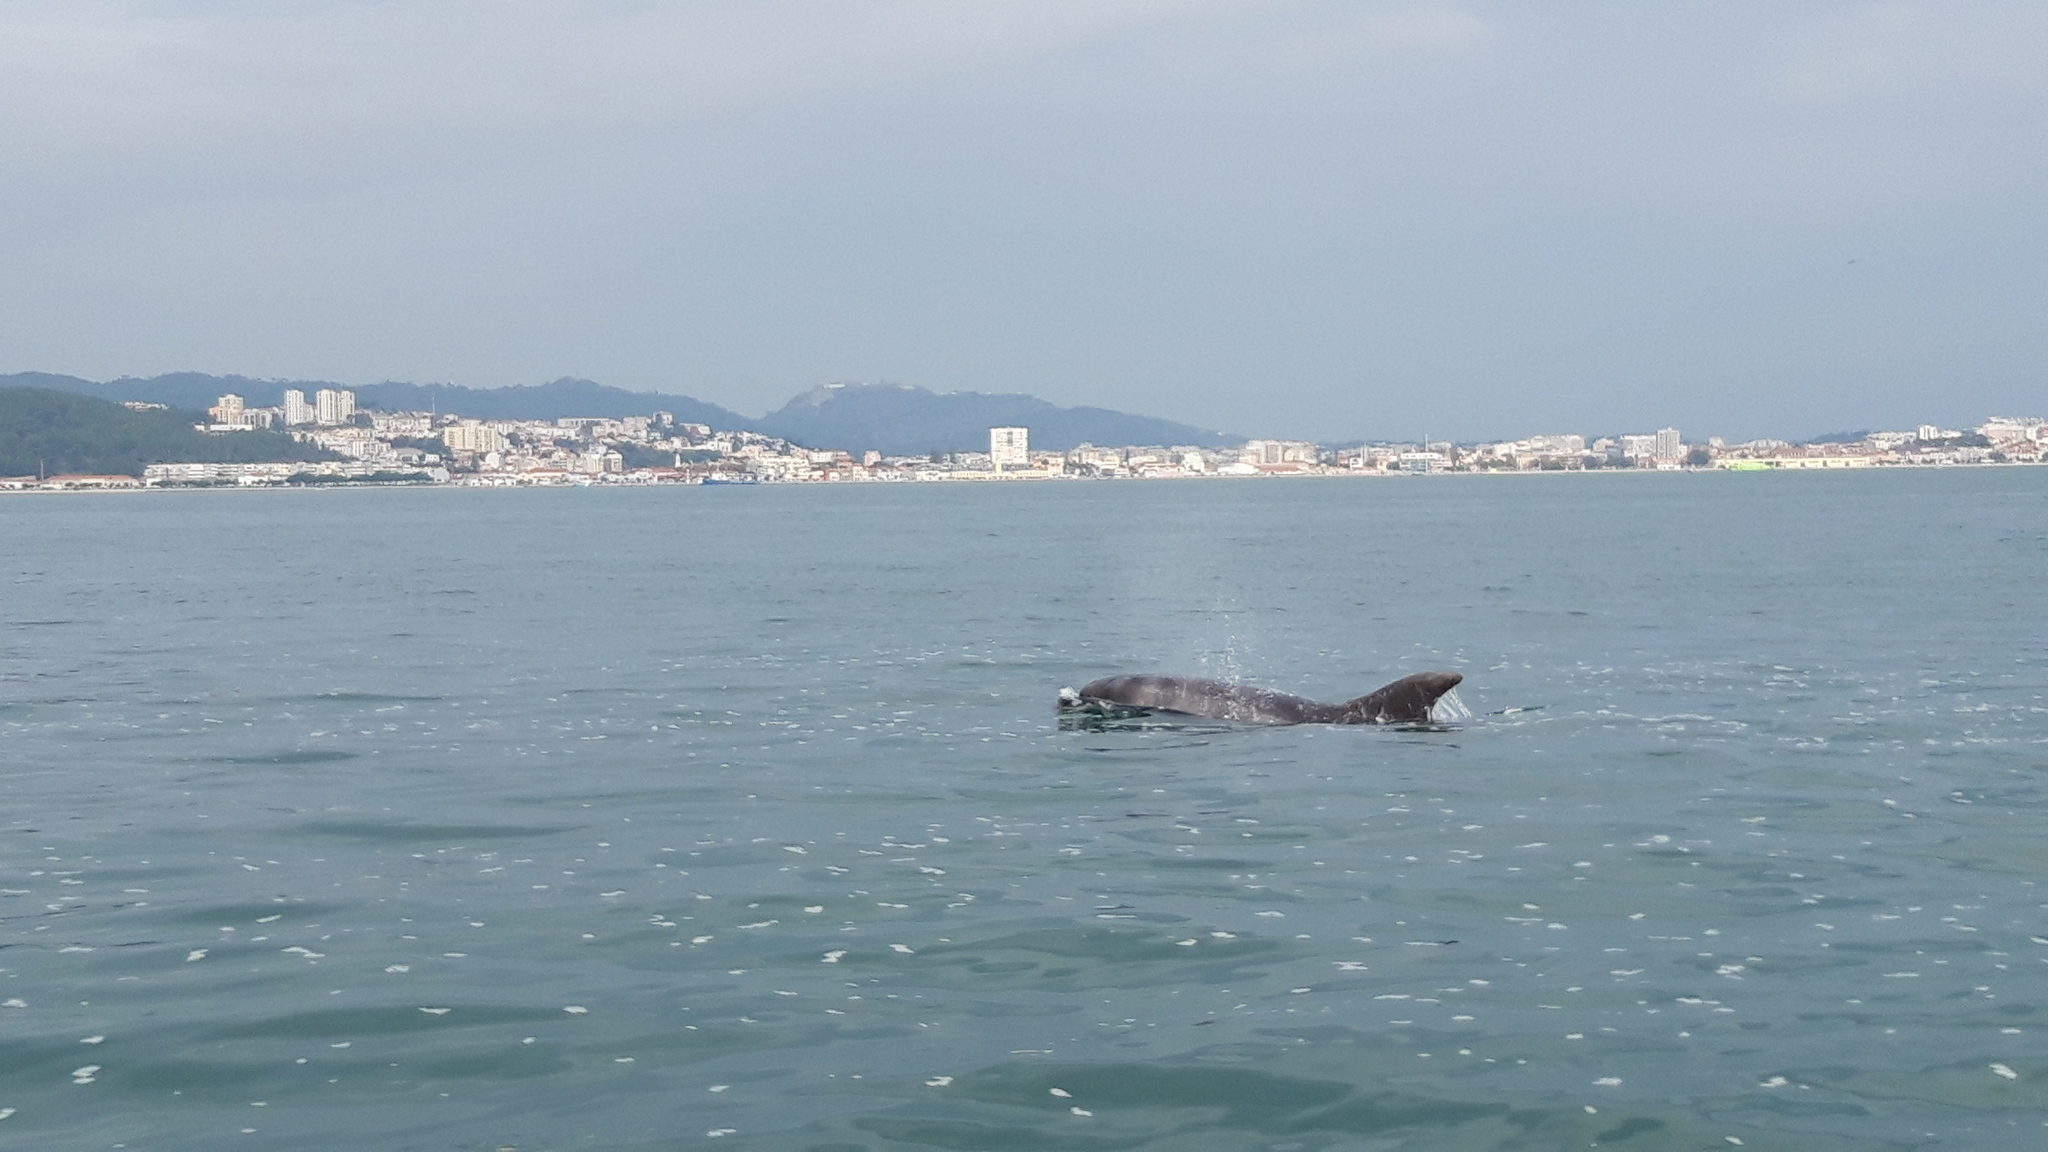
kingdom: Animalia
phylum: Chordata
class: Mammalia
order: Cetacea
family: Delphinidae
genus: Tursiops
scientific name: Tursiops truncatus
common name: Bottlenose dolphin
